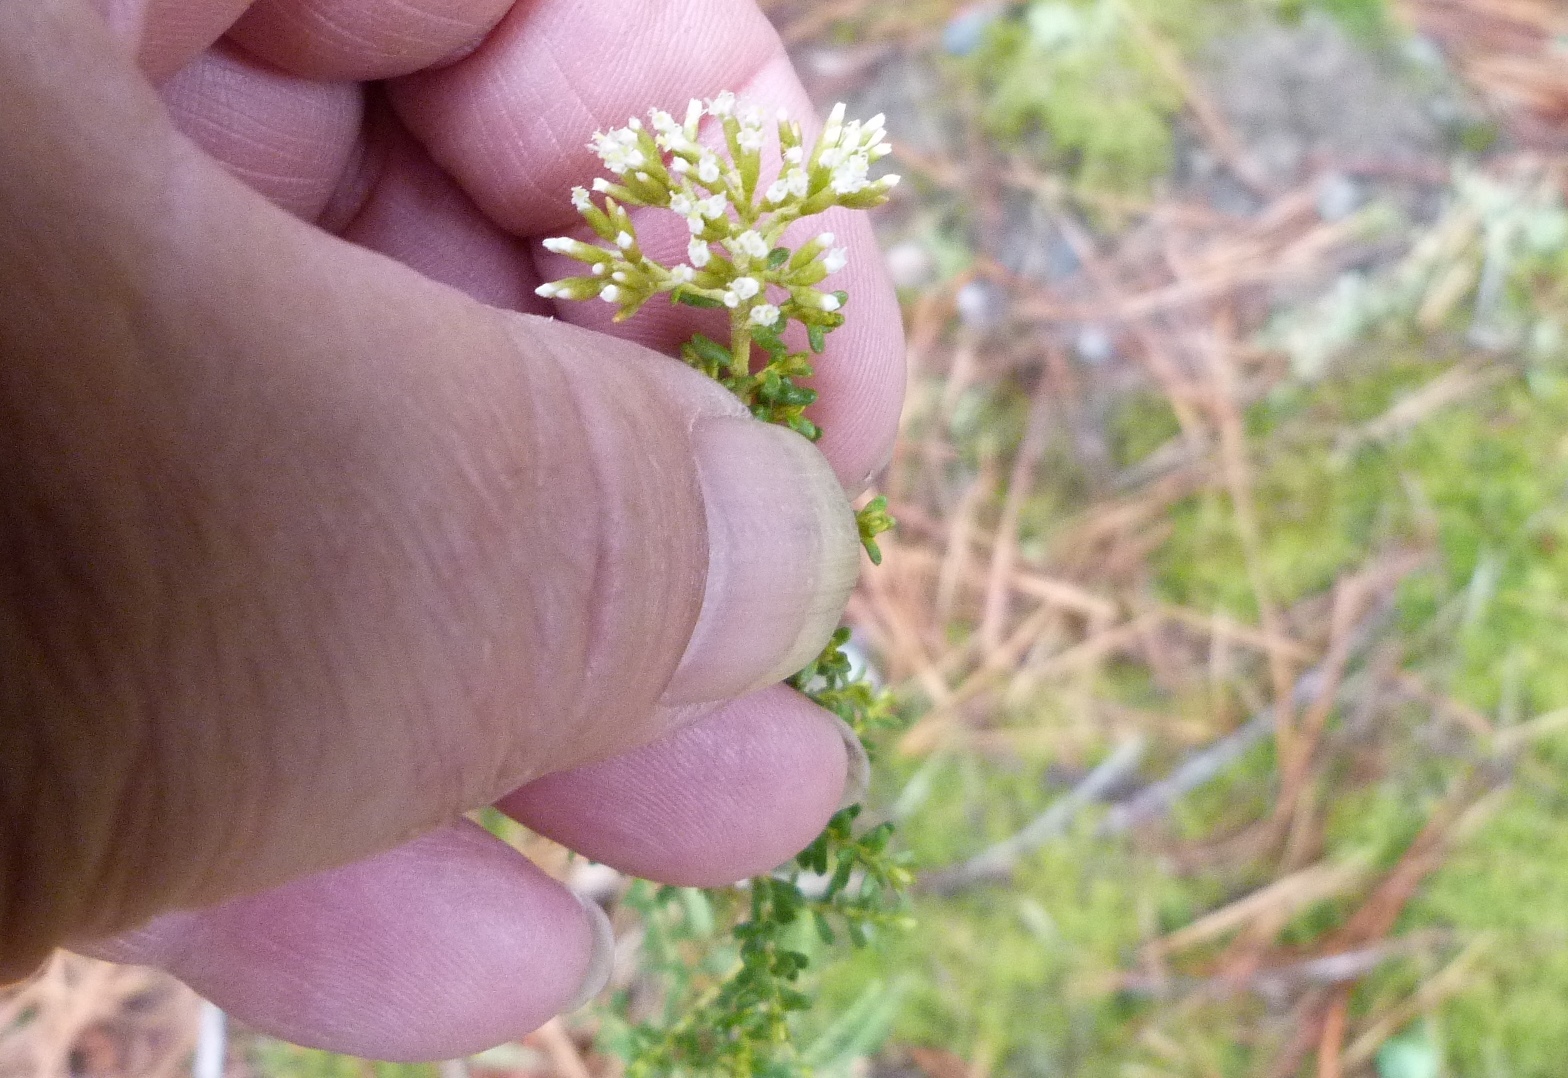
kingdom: Plantae
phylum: Tracheophyta
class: Magnoliopsida
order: Asterales
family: Asteraceae
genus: Ozothamnus
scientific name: Ozothamnus leptophyllus
